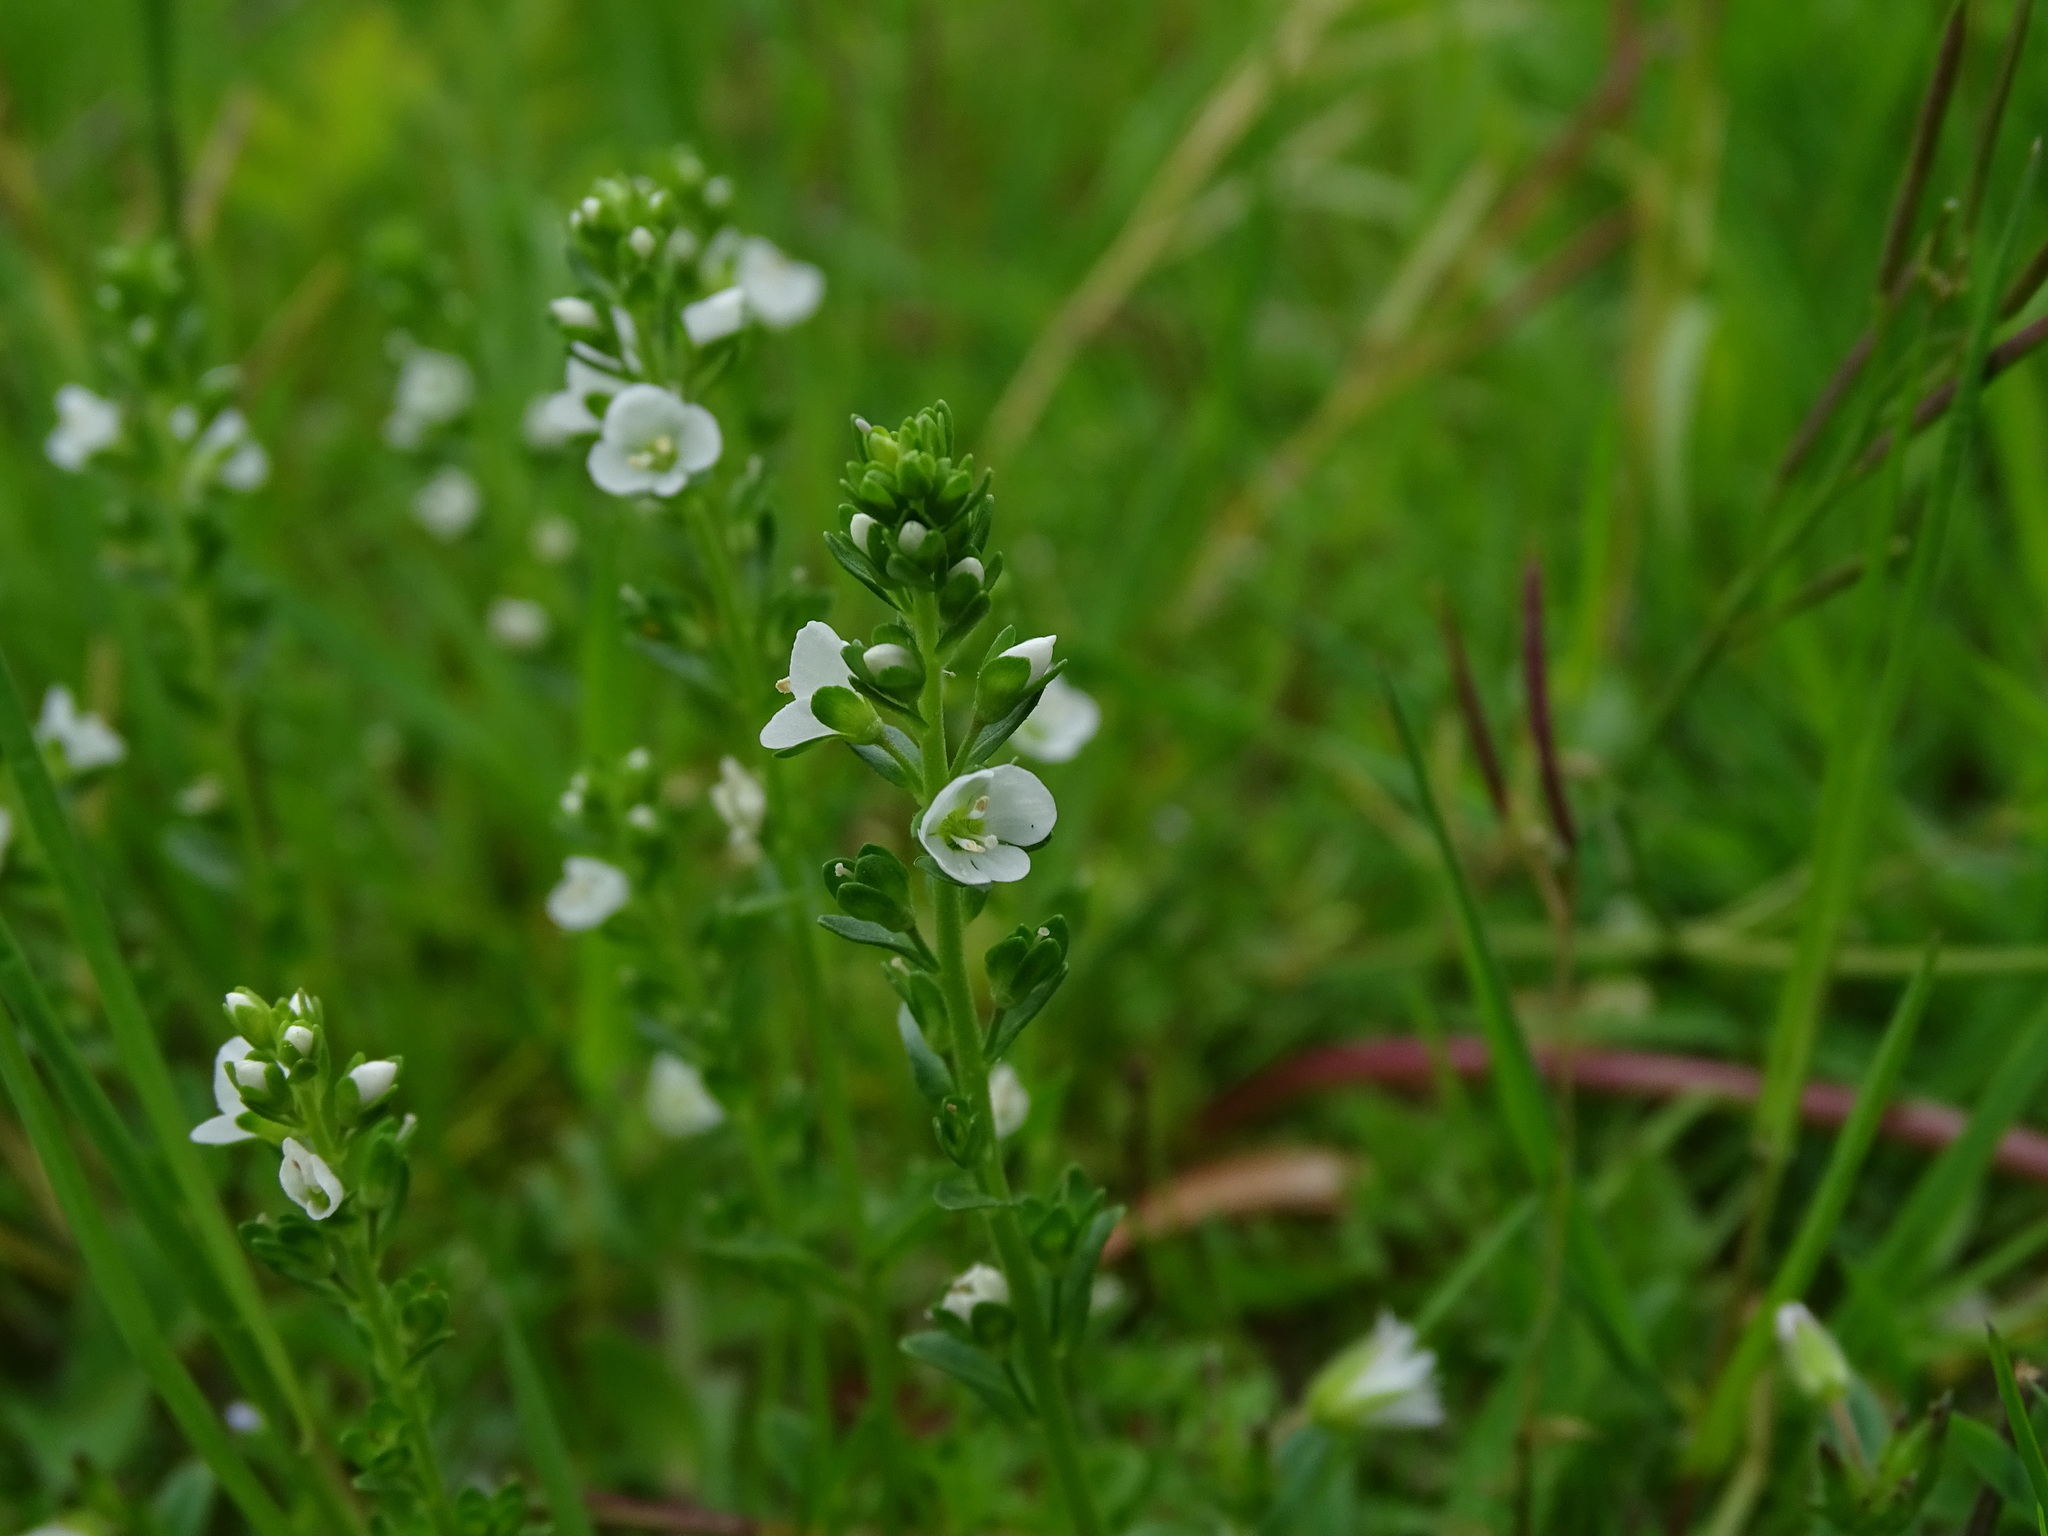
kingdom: Plantae
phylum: Tracheophyta
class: Magnoliopsida
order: Lamiales
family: Plantaginaceae
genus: Veronica
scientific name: Veronica serpyllifolia
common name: Thyme-leaved speedwell
